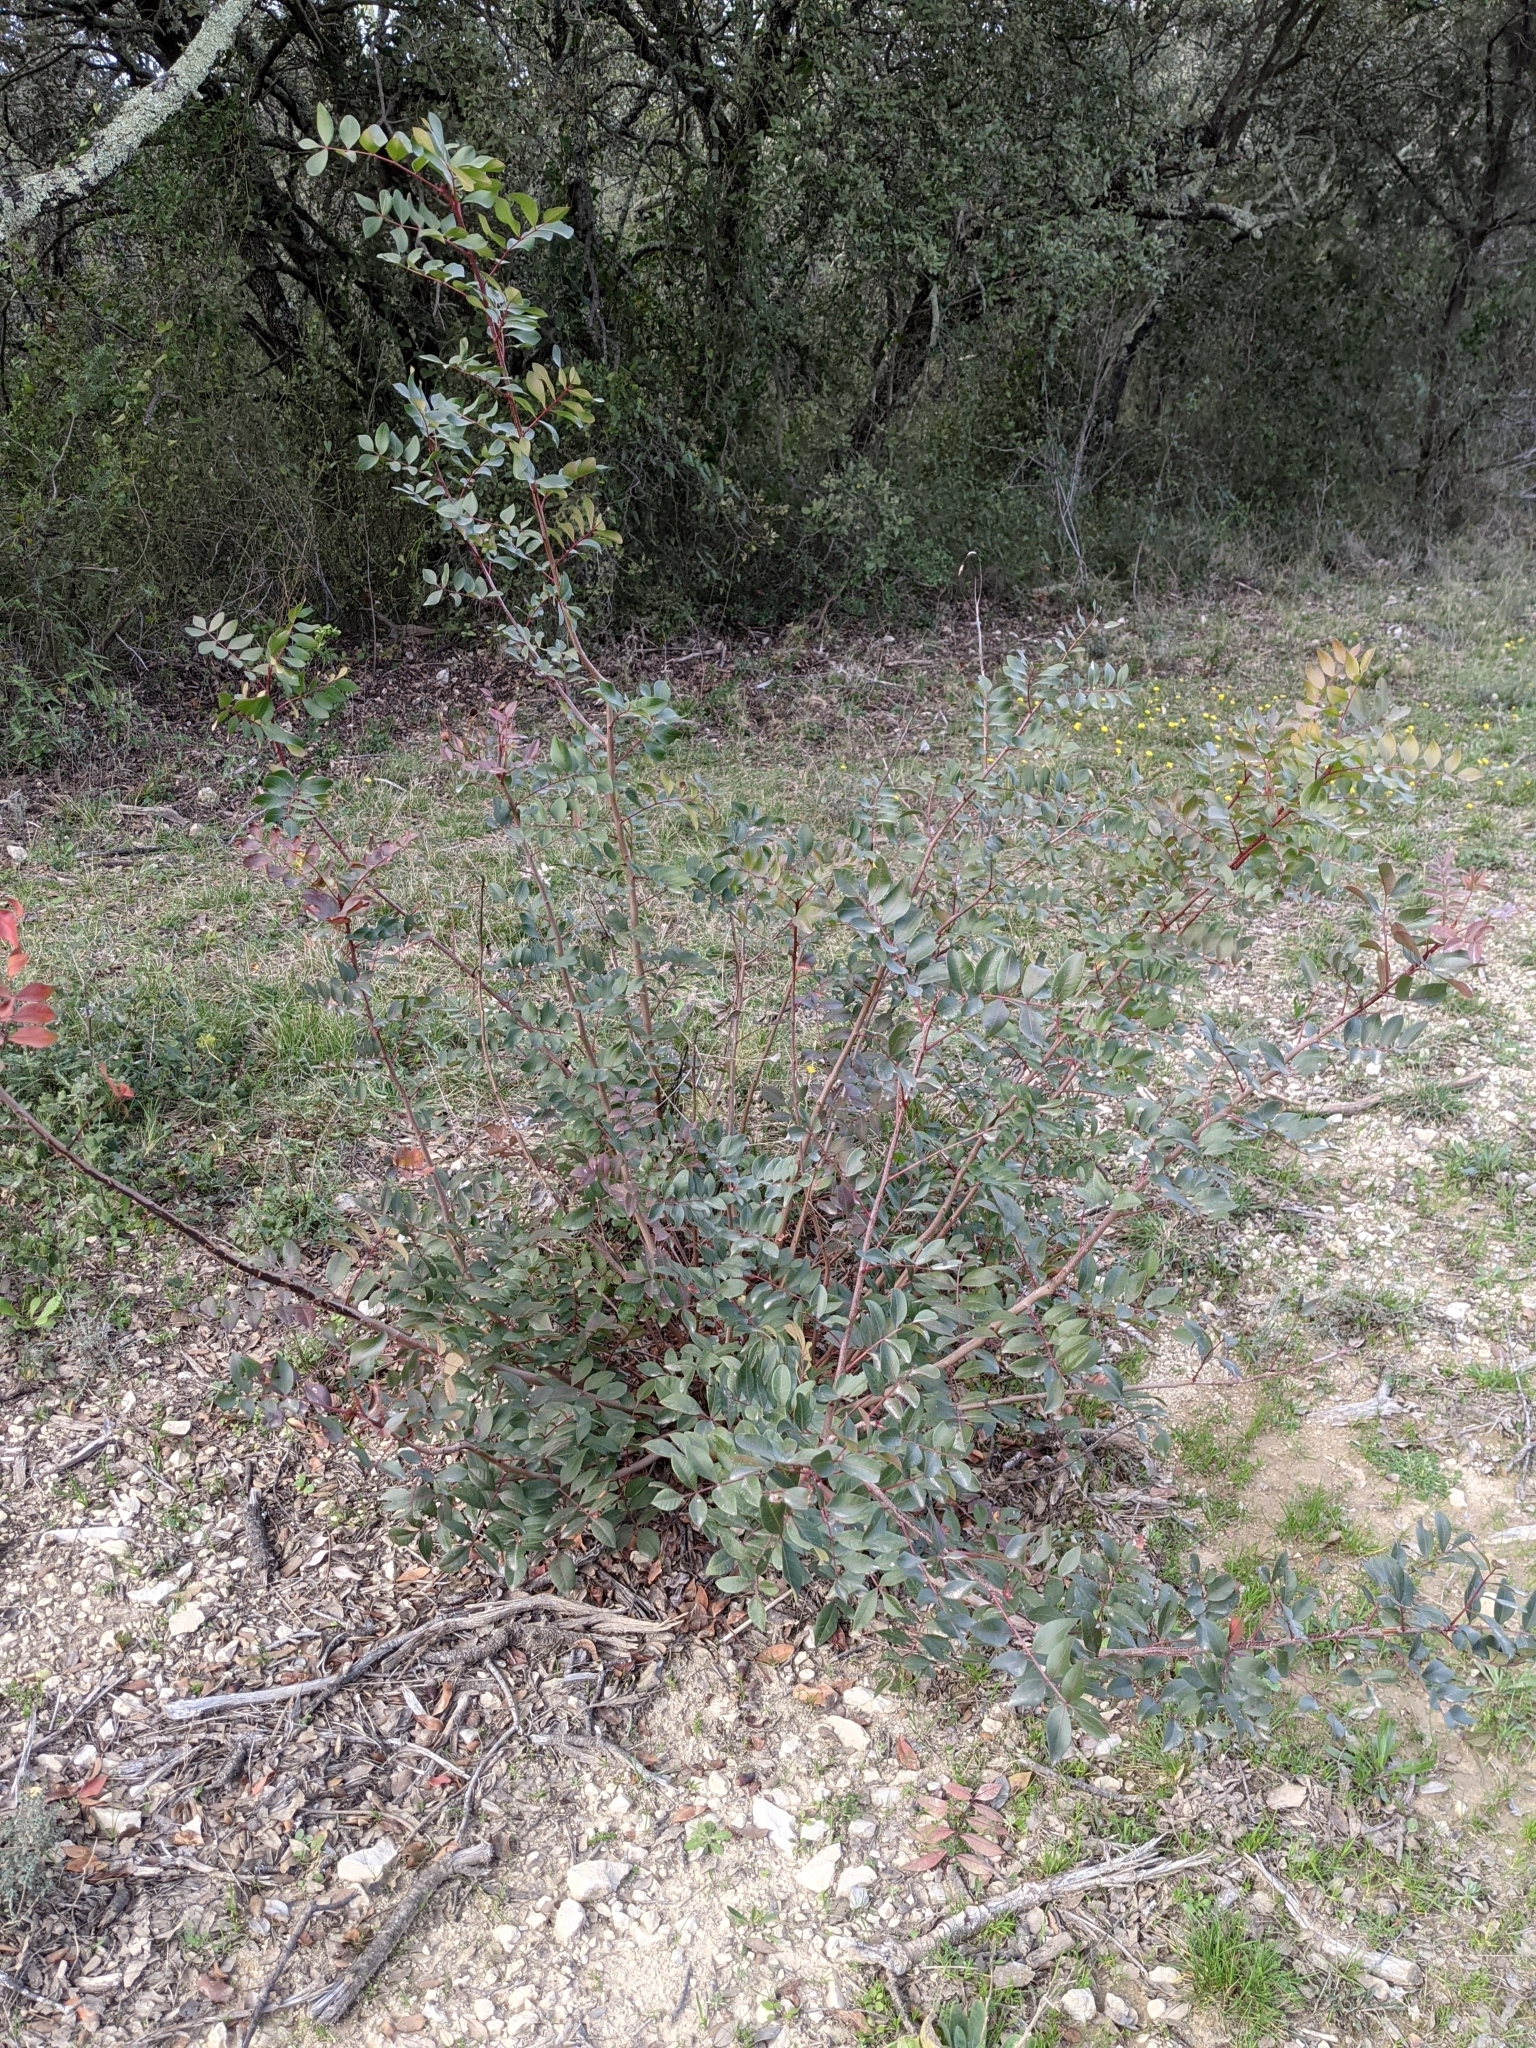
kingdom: Plantae
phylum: Tracheophyta
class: Magnoliopsida
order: Sapindales
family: Anacardiaceae
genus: Pistacia
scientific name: Pistacia saportae
